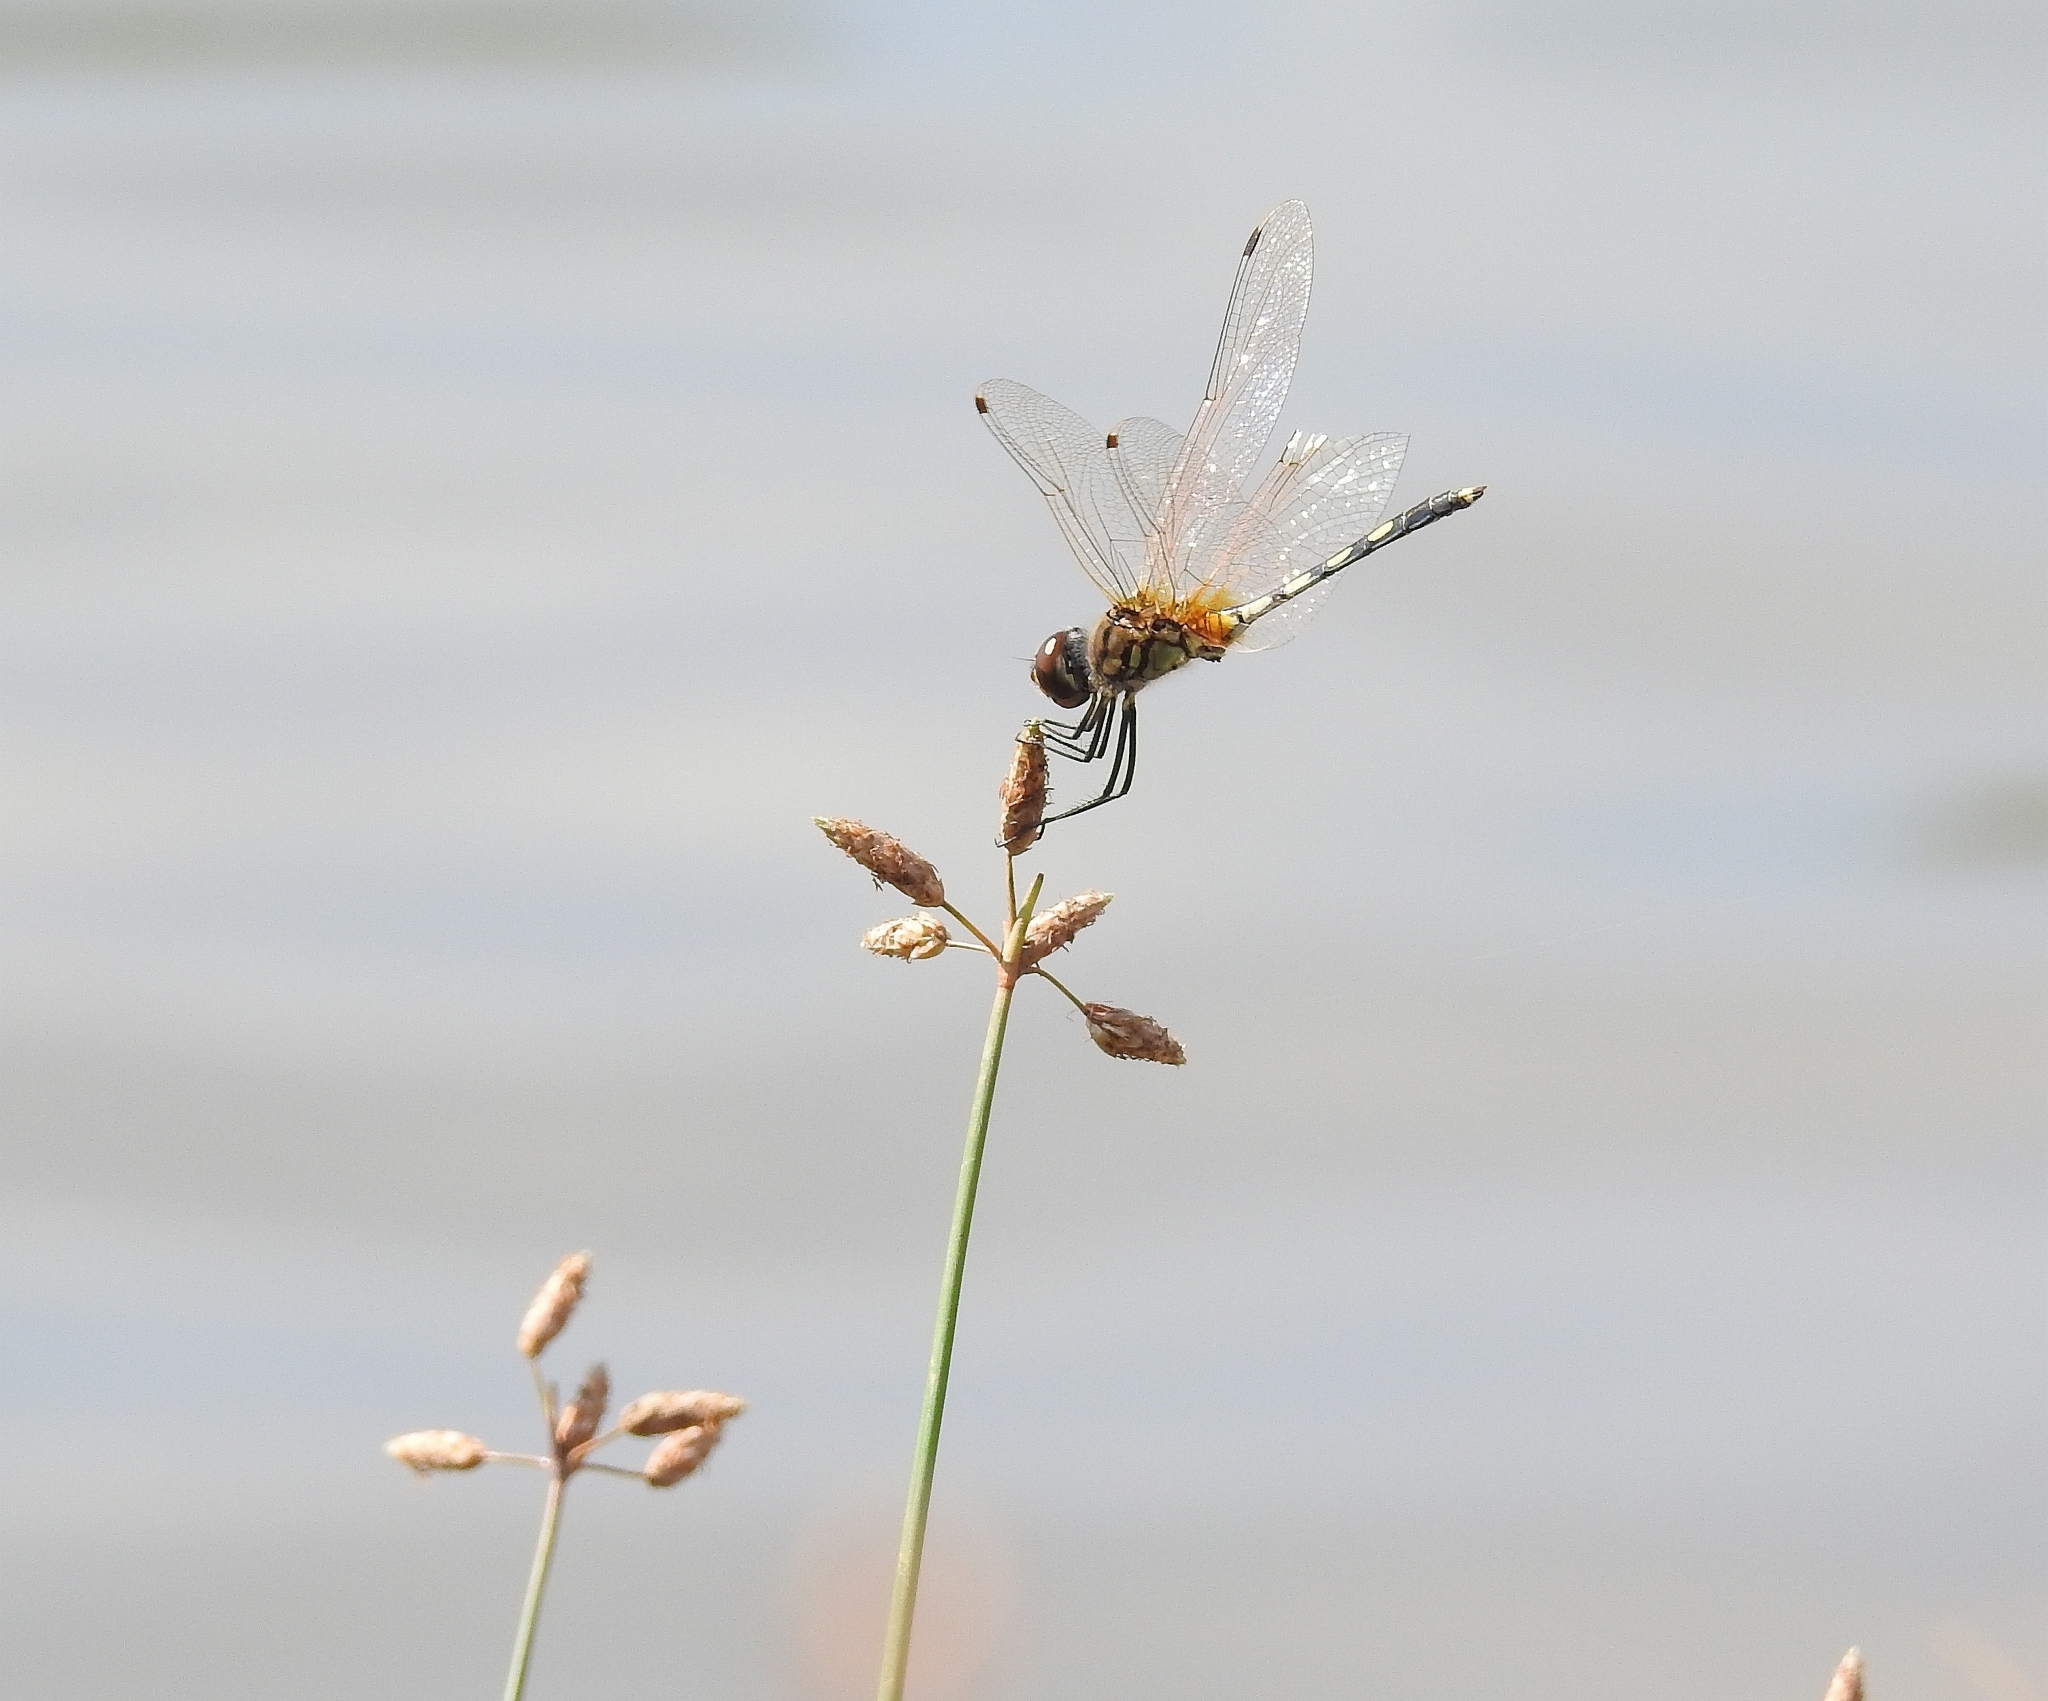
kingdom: Animalia
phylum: Arthropoda
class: Insecta
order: Odonata
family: Libellulidae
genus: Trithemis
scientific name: Trithemis pallidinervis
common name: Dancing dropwing
